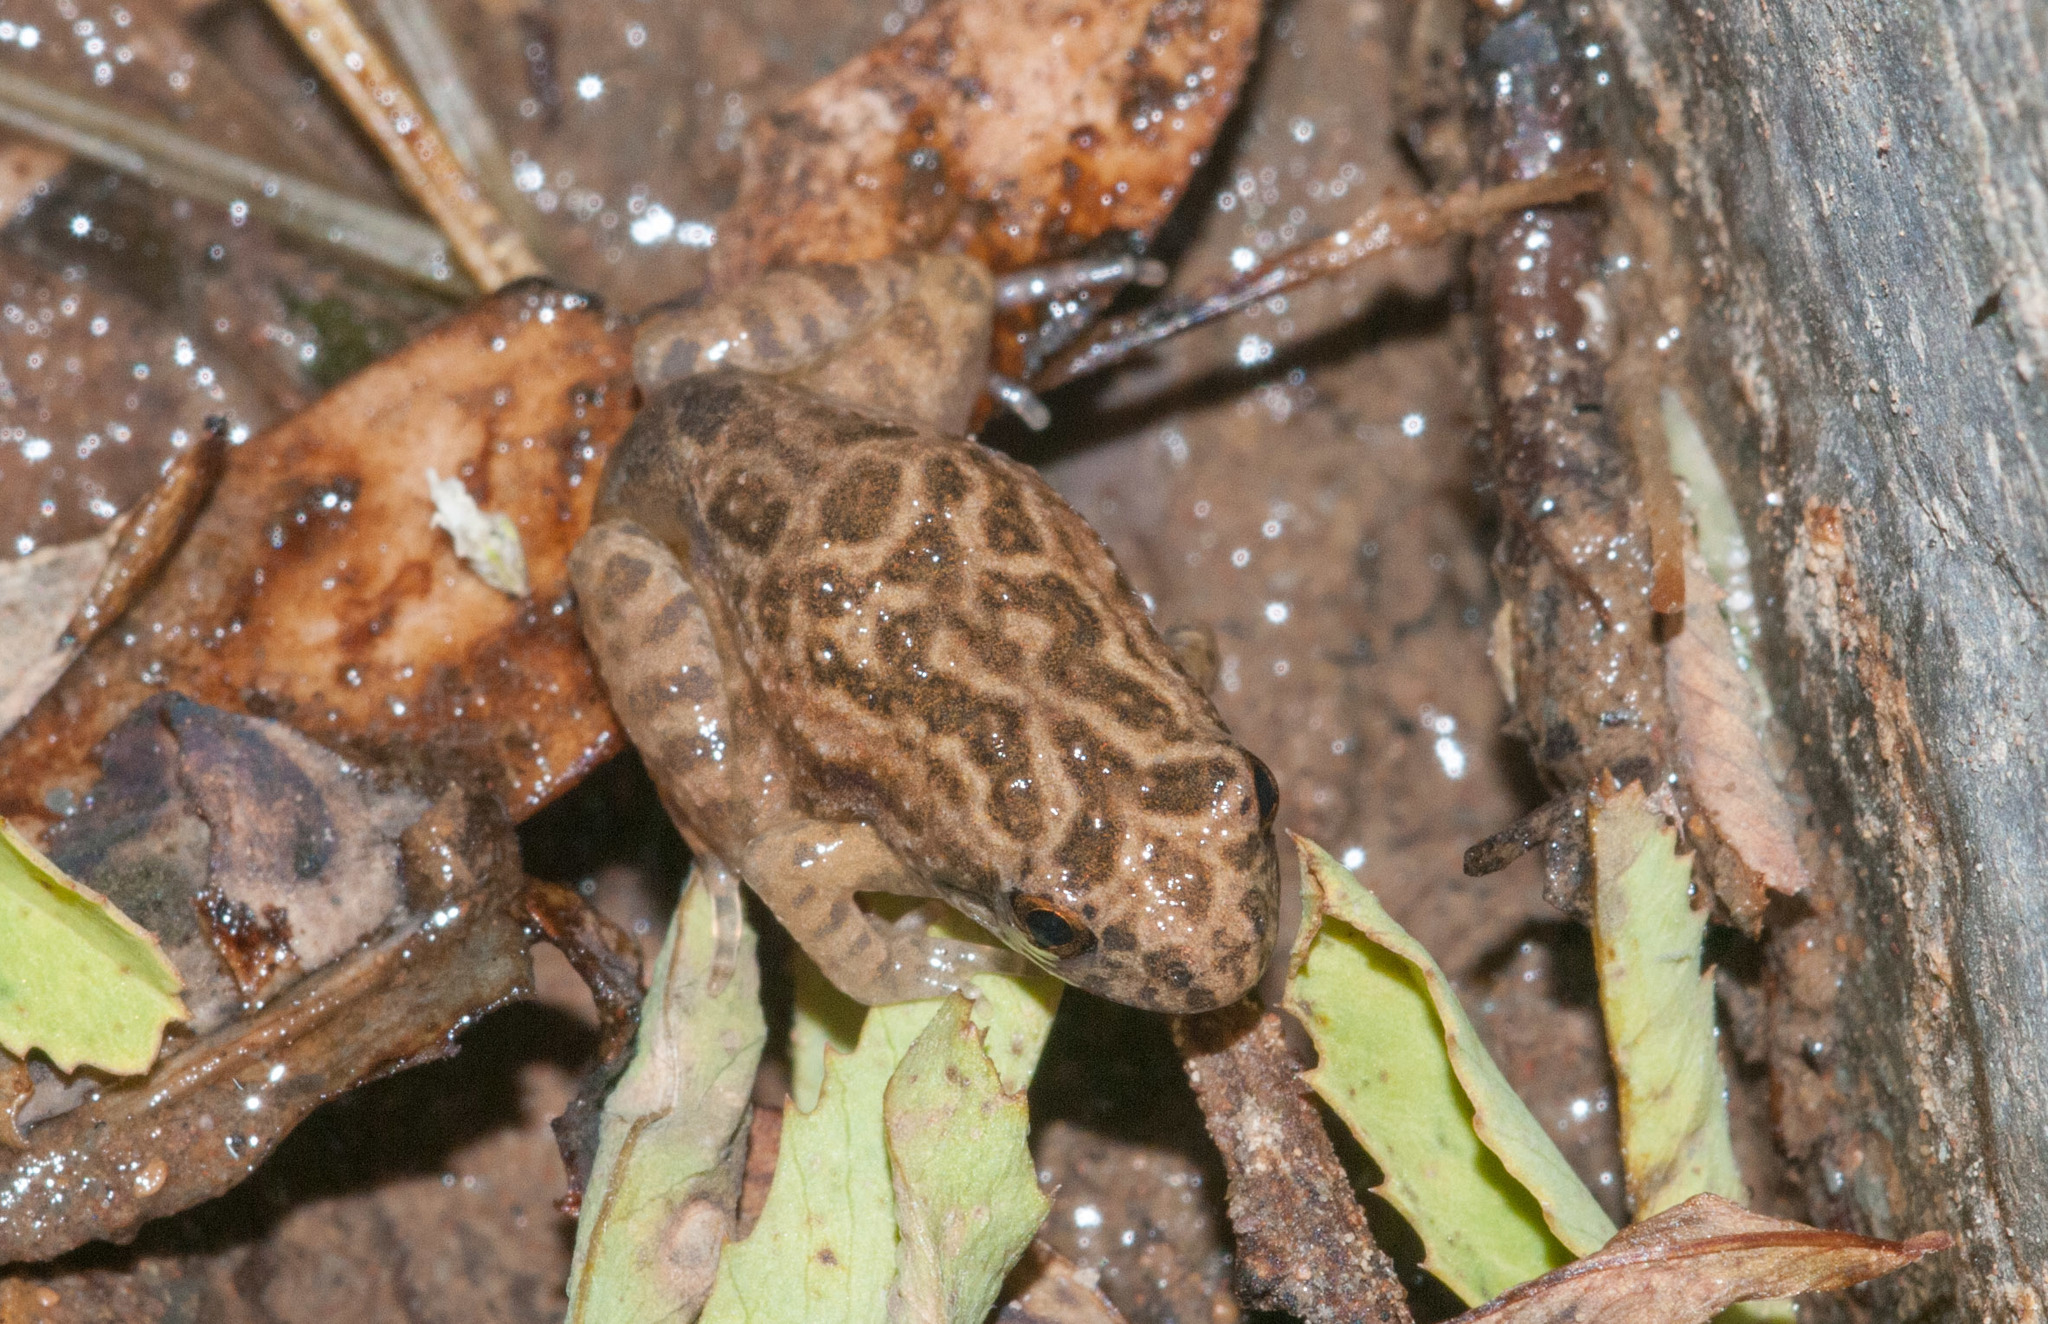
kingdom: Animalia
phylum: Chordata
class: Amphibia
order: Anura
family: Myobatrachidae
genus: Crinia
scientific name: Crinia flindersensis
